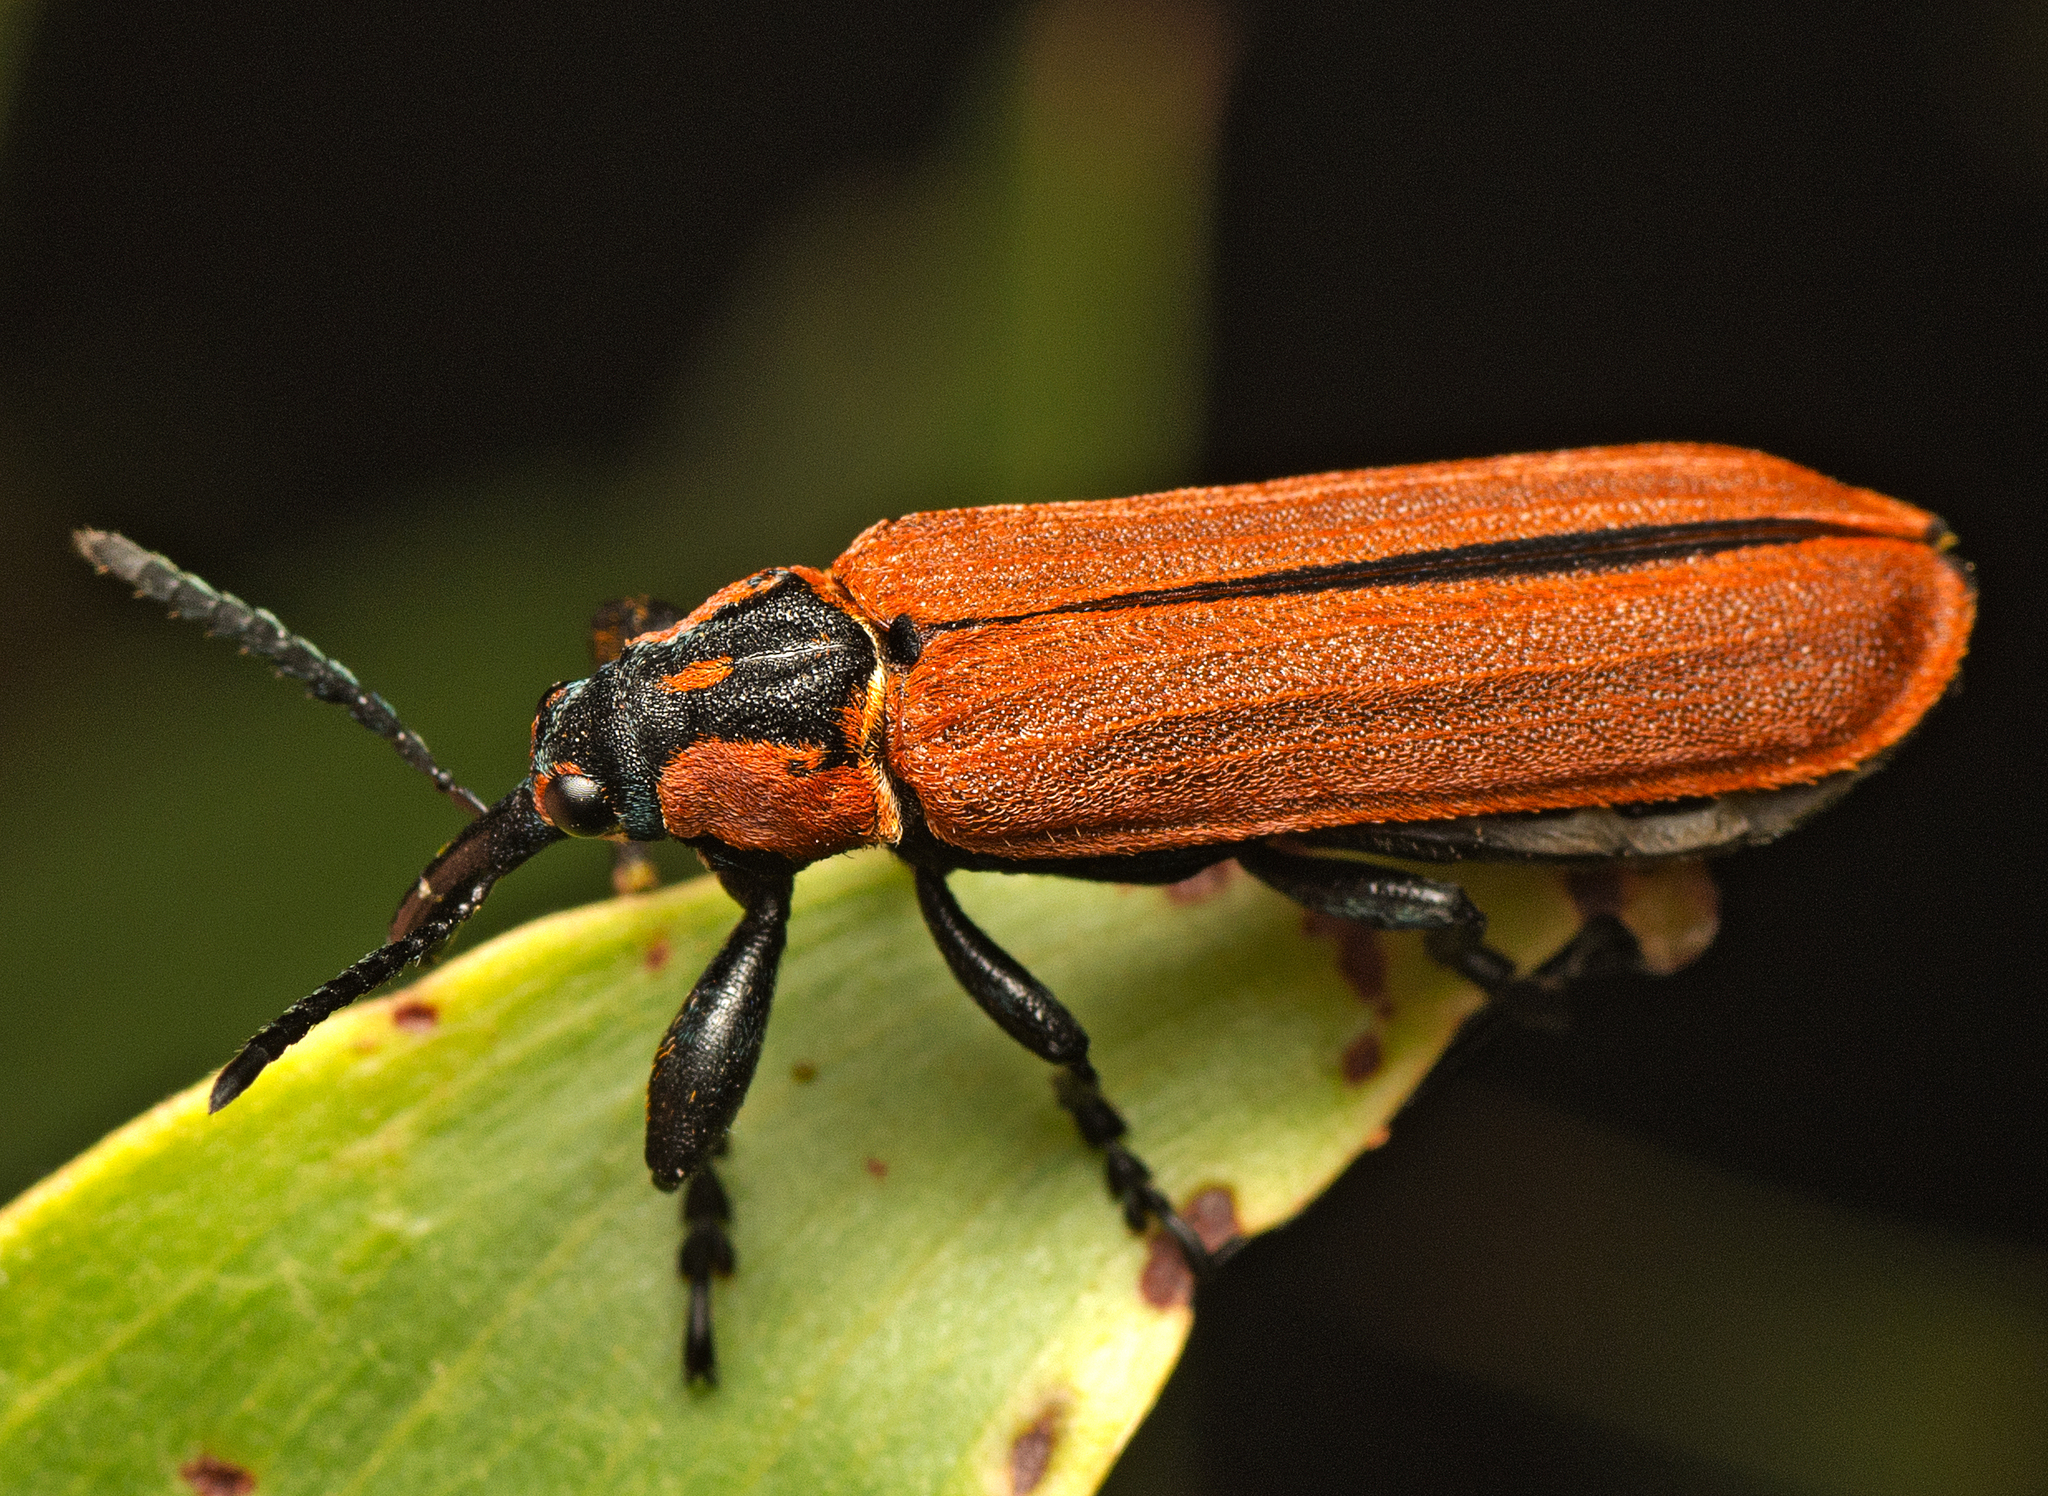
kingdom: Animalia
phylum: Arthropoda
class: Insecta
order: Coleoptera
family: Belidae
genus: Rhinotia
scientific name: Rhinotia haemoptera
